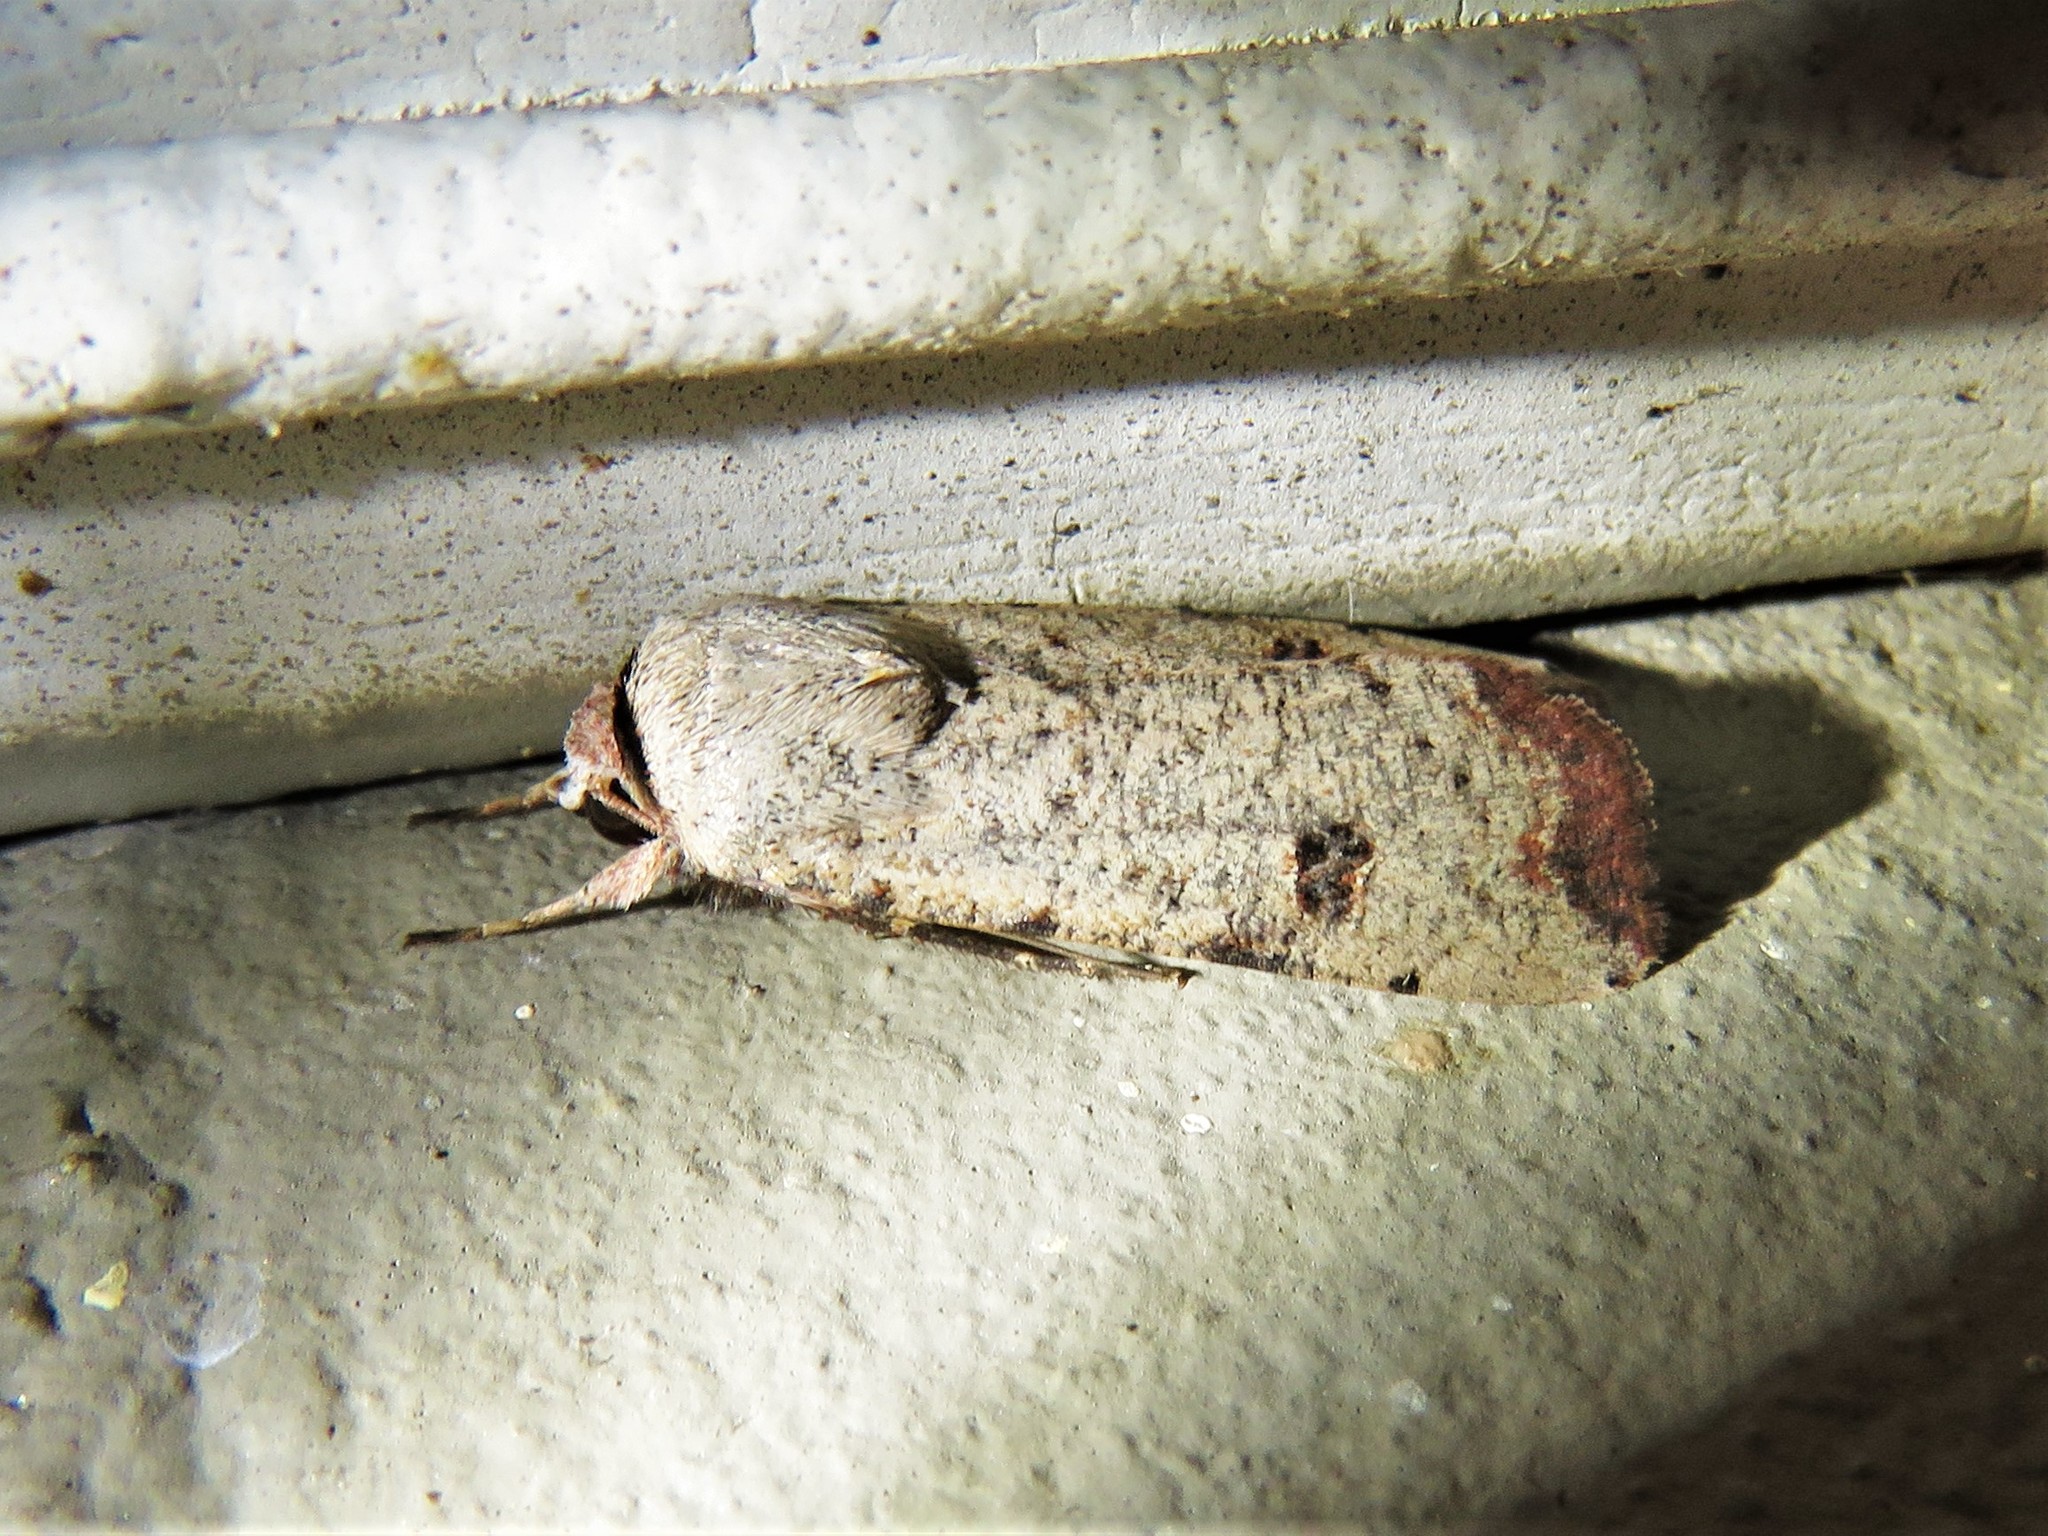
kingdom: Animalia
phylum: Arthropoda
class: Insecta
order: Lepidoptera
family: Noctuidae
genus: Anicla
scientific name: Anicla infecta
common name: Green cutworm
